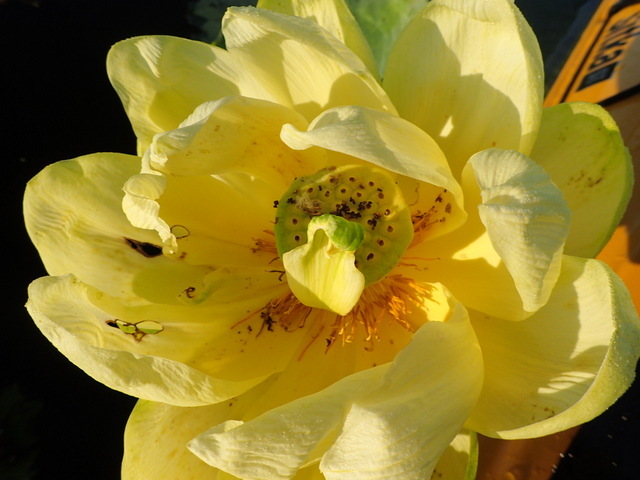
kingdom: Plantae
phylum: Tracheophyta
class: Magnoliopsida
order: Proteales
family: Nelumbonaceae
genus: Nelumbo
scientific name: Nelumbo lutea
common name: American lotus
